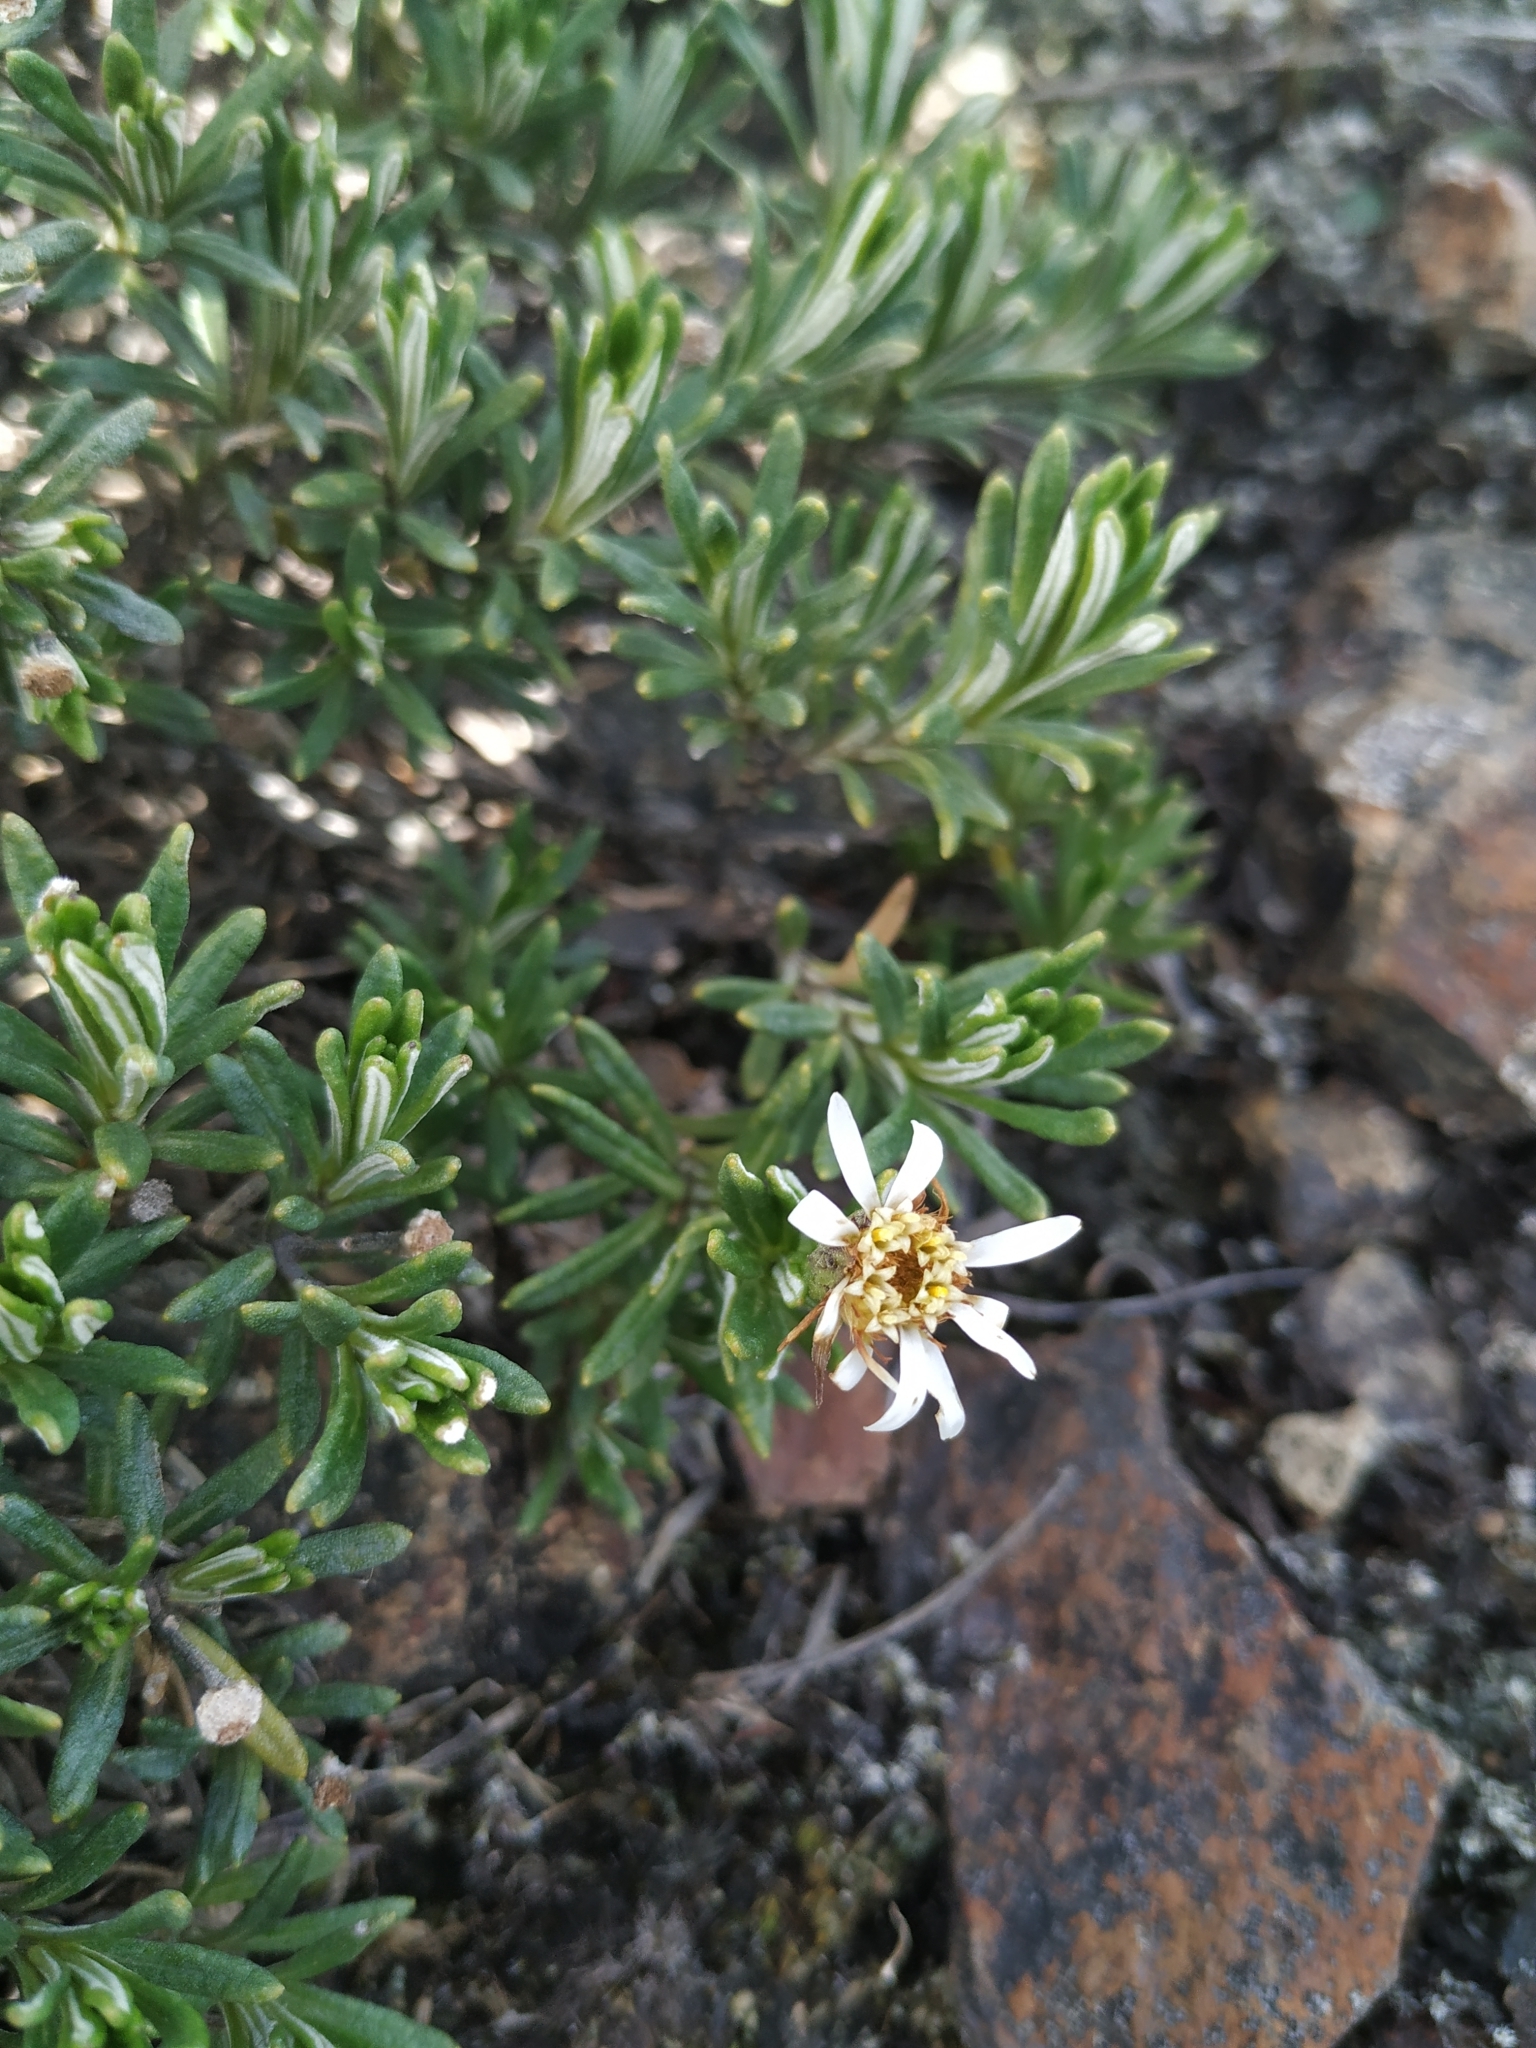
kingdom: Plantae
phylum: Tracheophyta
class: Magnoliopsida
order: Asterales
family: Asteraceae
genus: Linochilus
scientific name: Linochilus apiculatus
